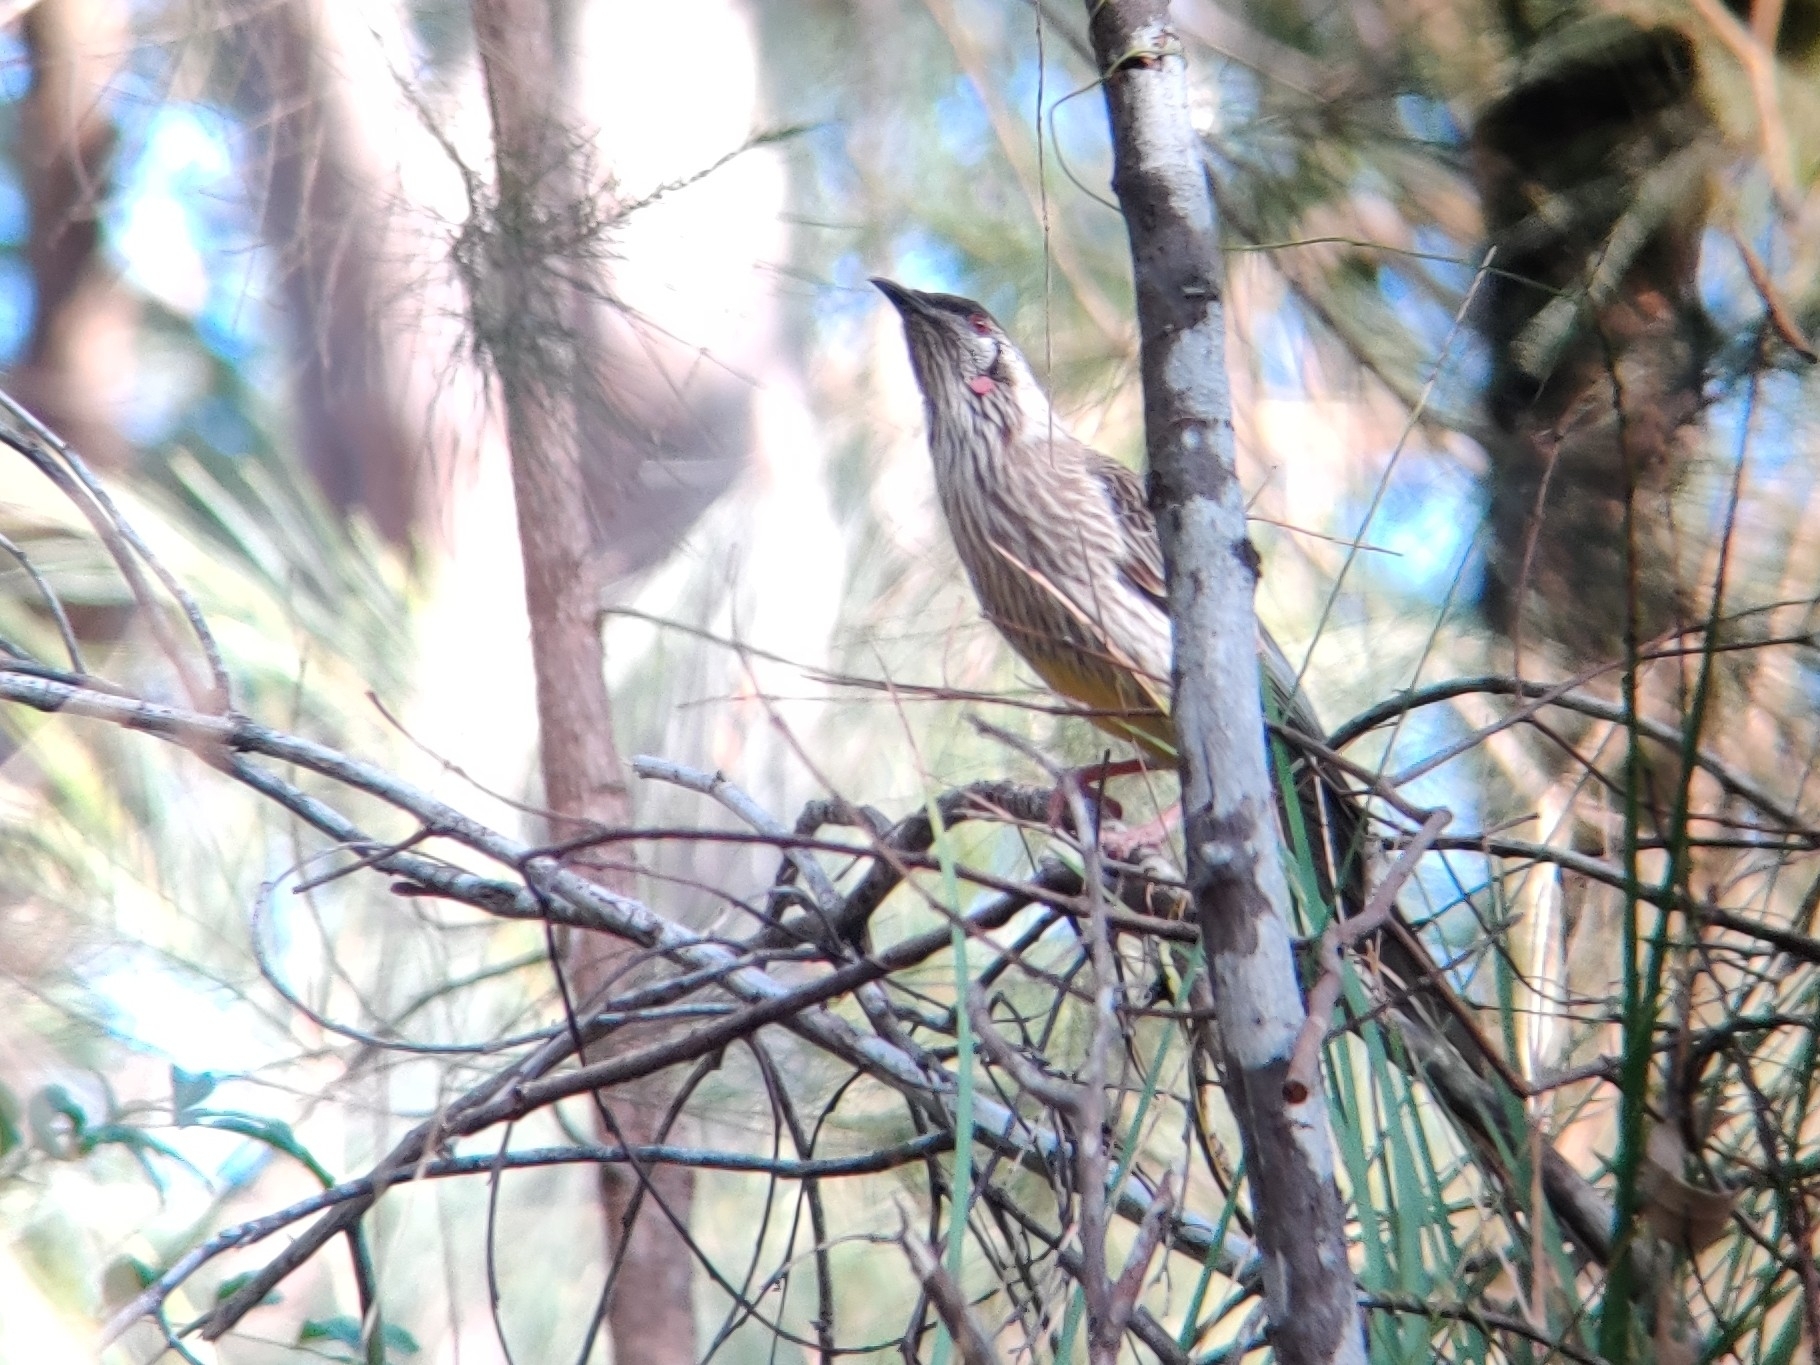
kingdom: Animalia
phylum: Chordata
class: Aves
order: Passeriformes
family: Meliphagidae
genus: Anthochaera
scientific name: Anthochaera carunculata
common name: Red wattlebird
